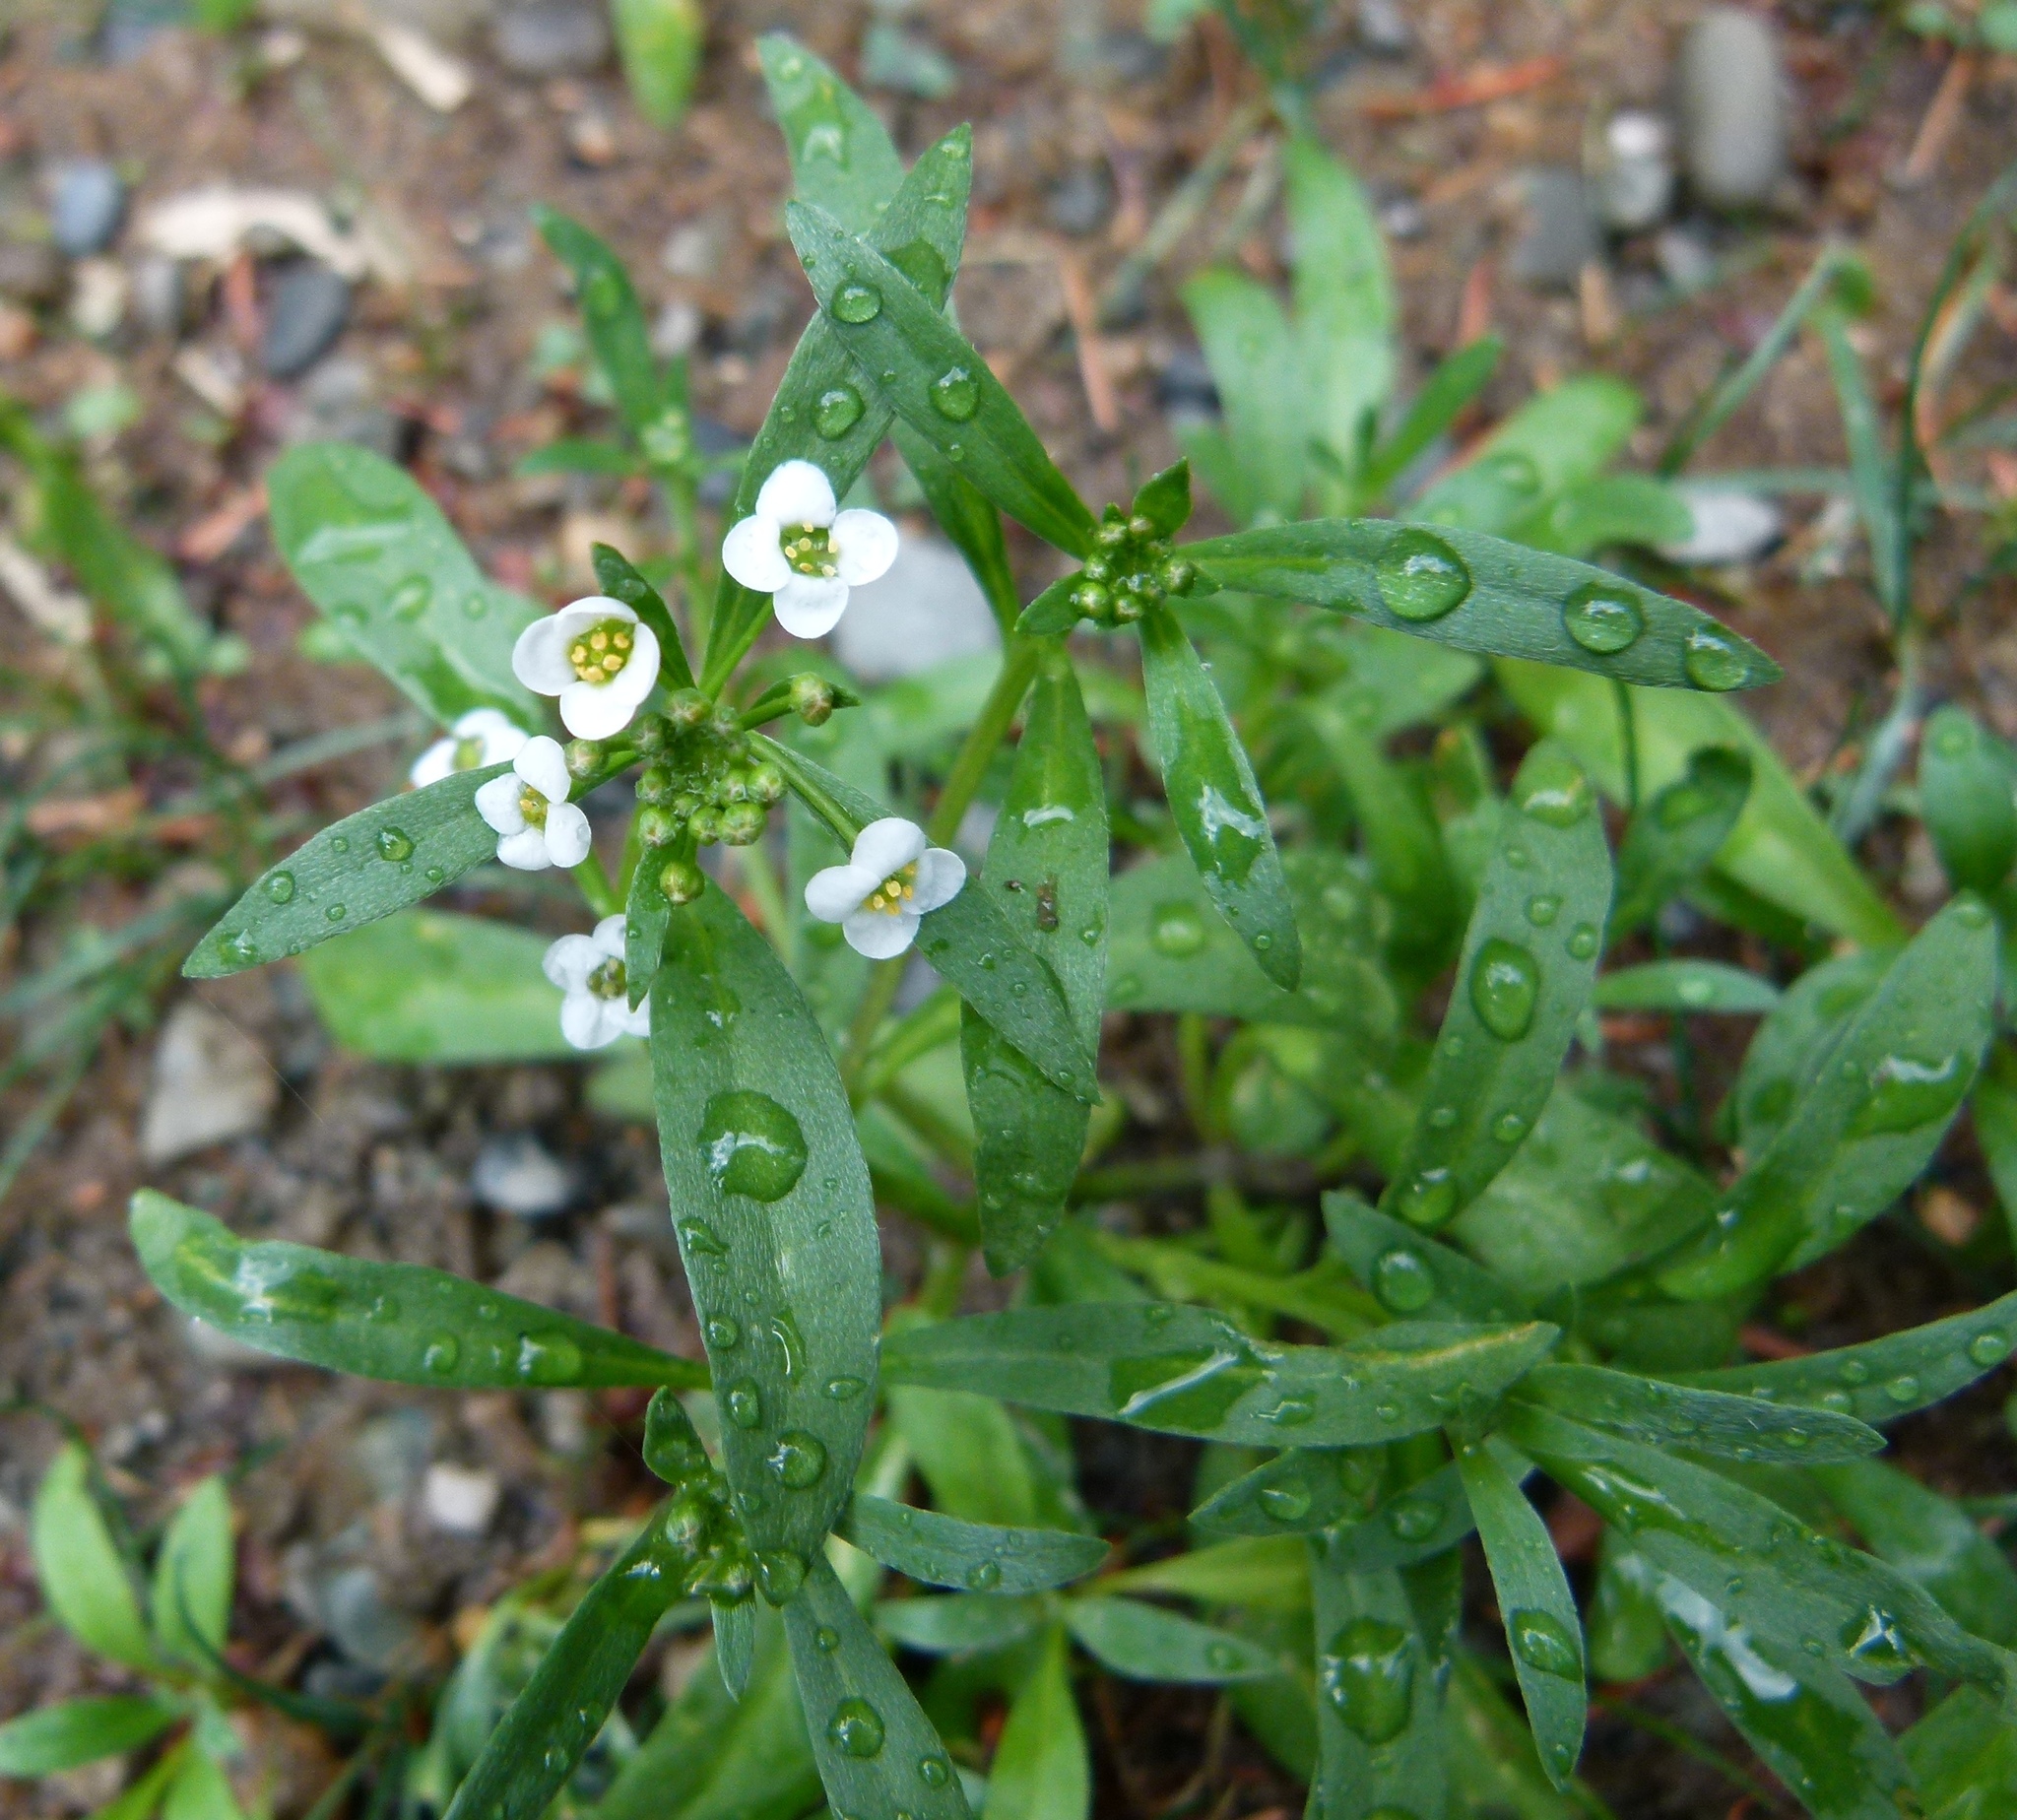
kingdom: Plantae
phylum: Tracheophyta
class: Magnoliopsida
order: Brassicales
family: Brassicaceae
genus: Lobularia
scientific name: Lobularia maritima
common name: Sweet alison
